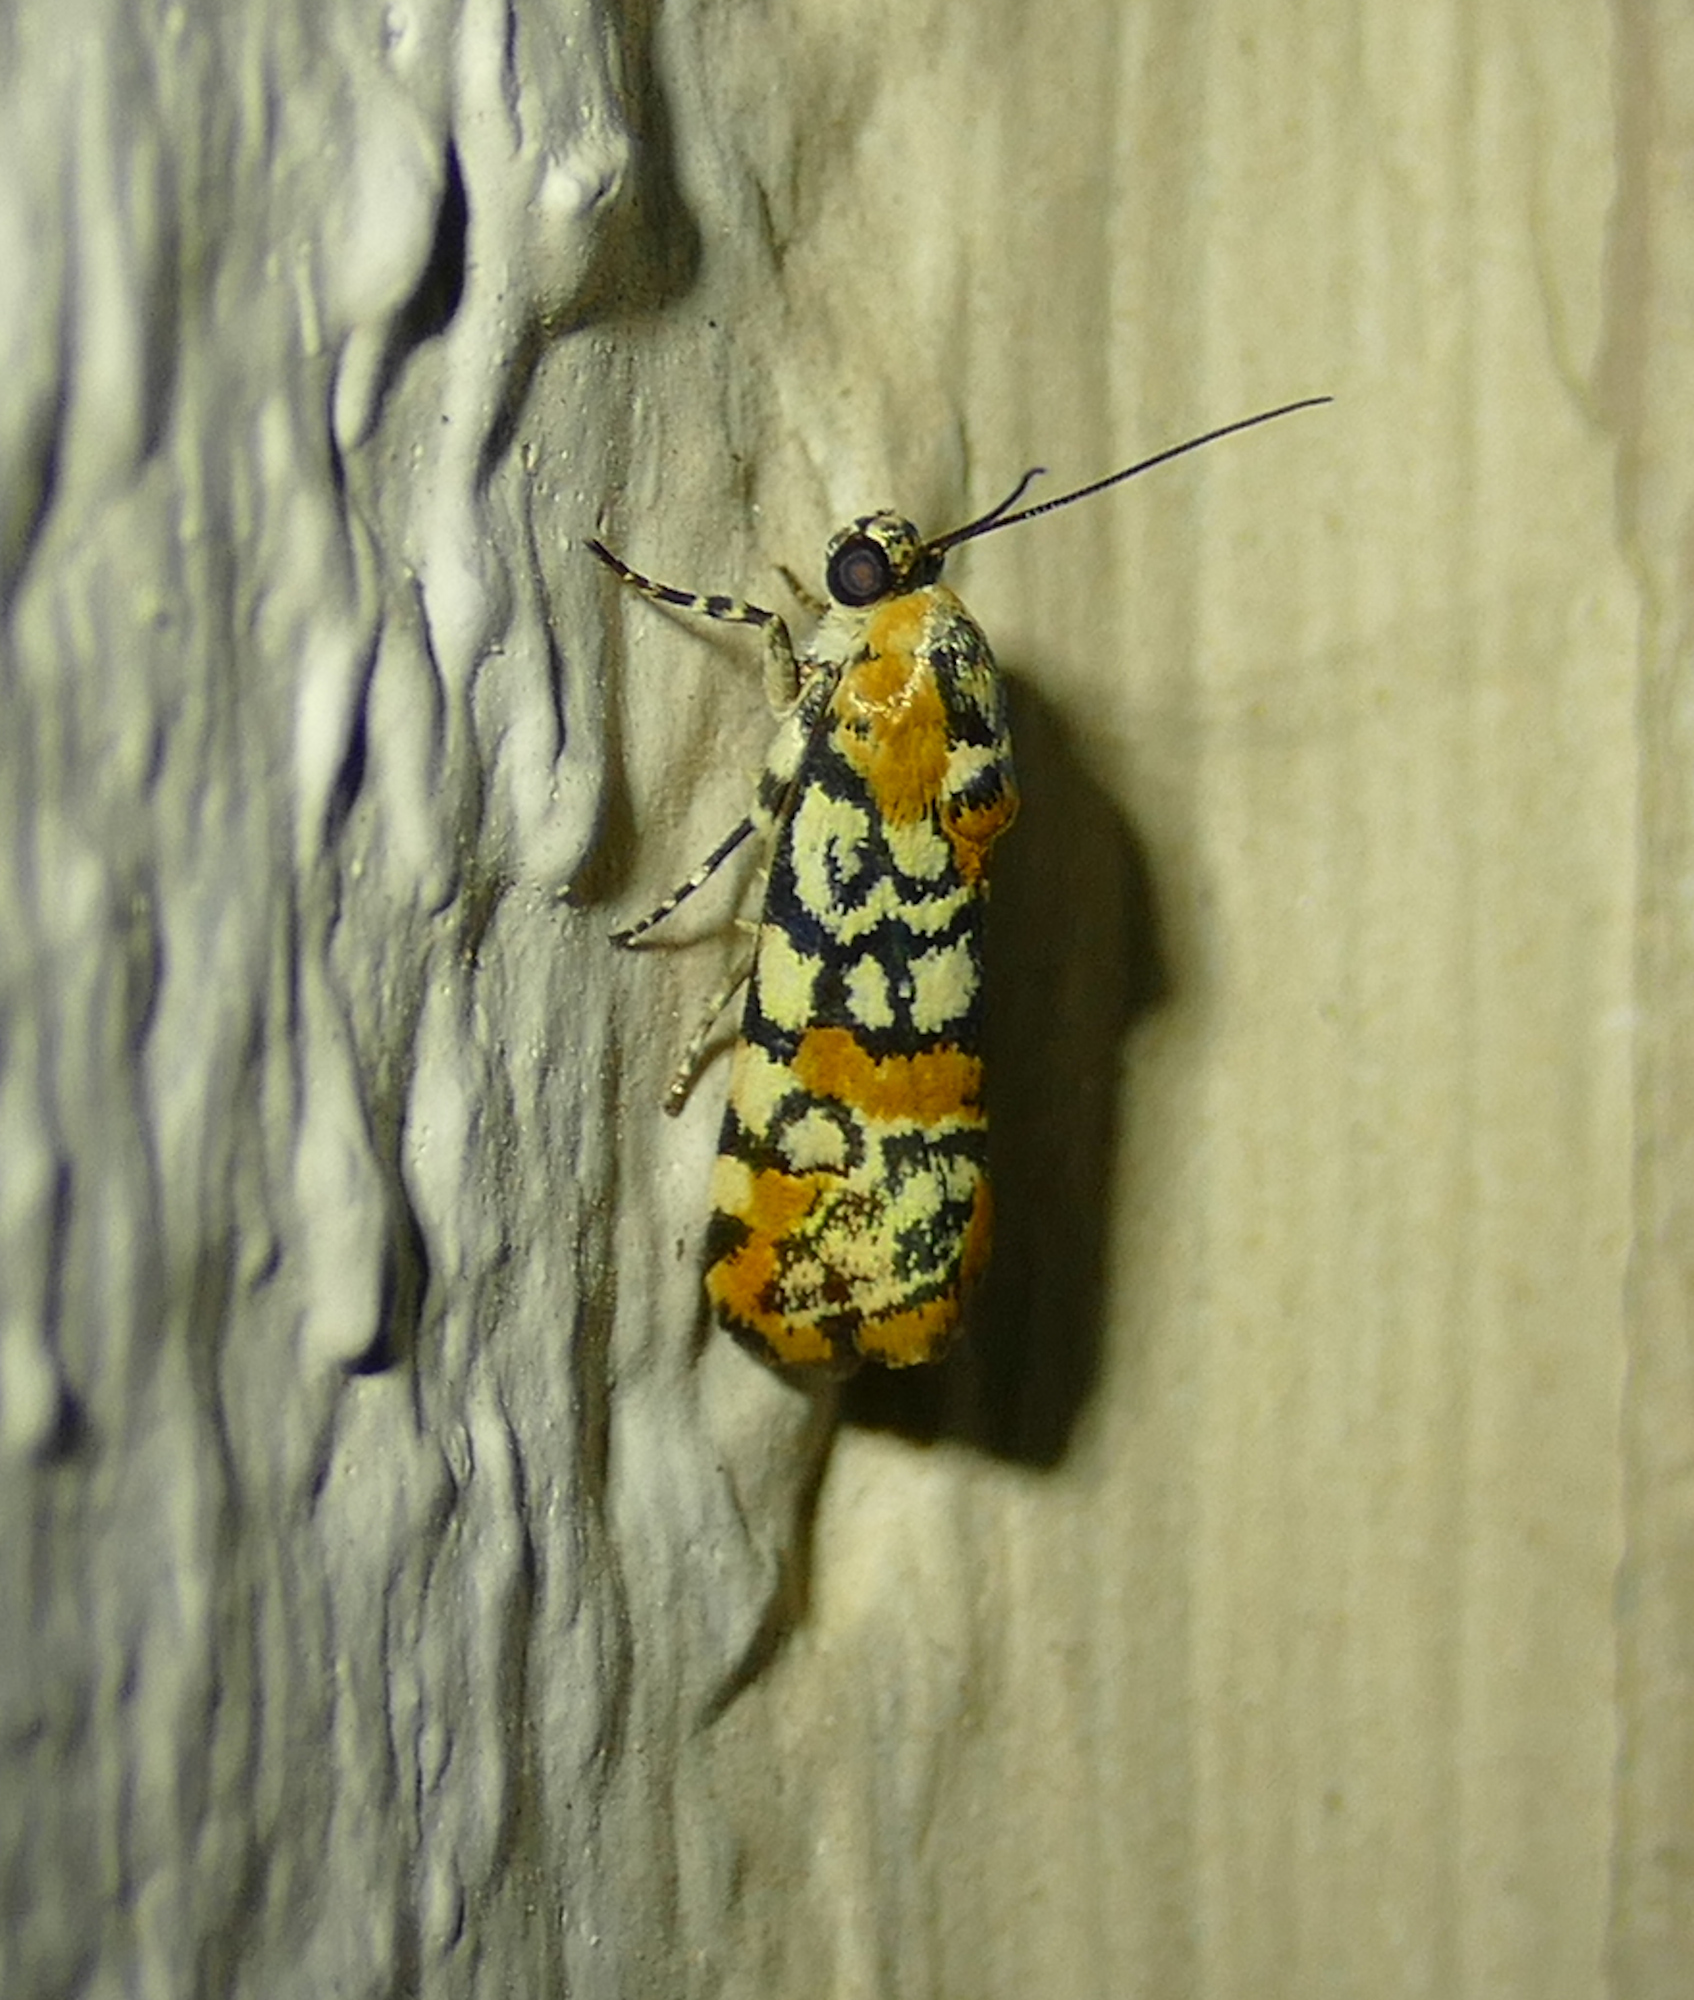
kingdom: Animalia
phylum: Arthropoda
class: Insecta
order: Lepidoptera
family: Noctuidae
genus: Spragueia
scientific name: Spragueia guttata
